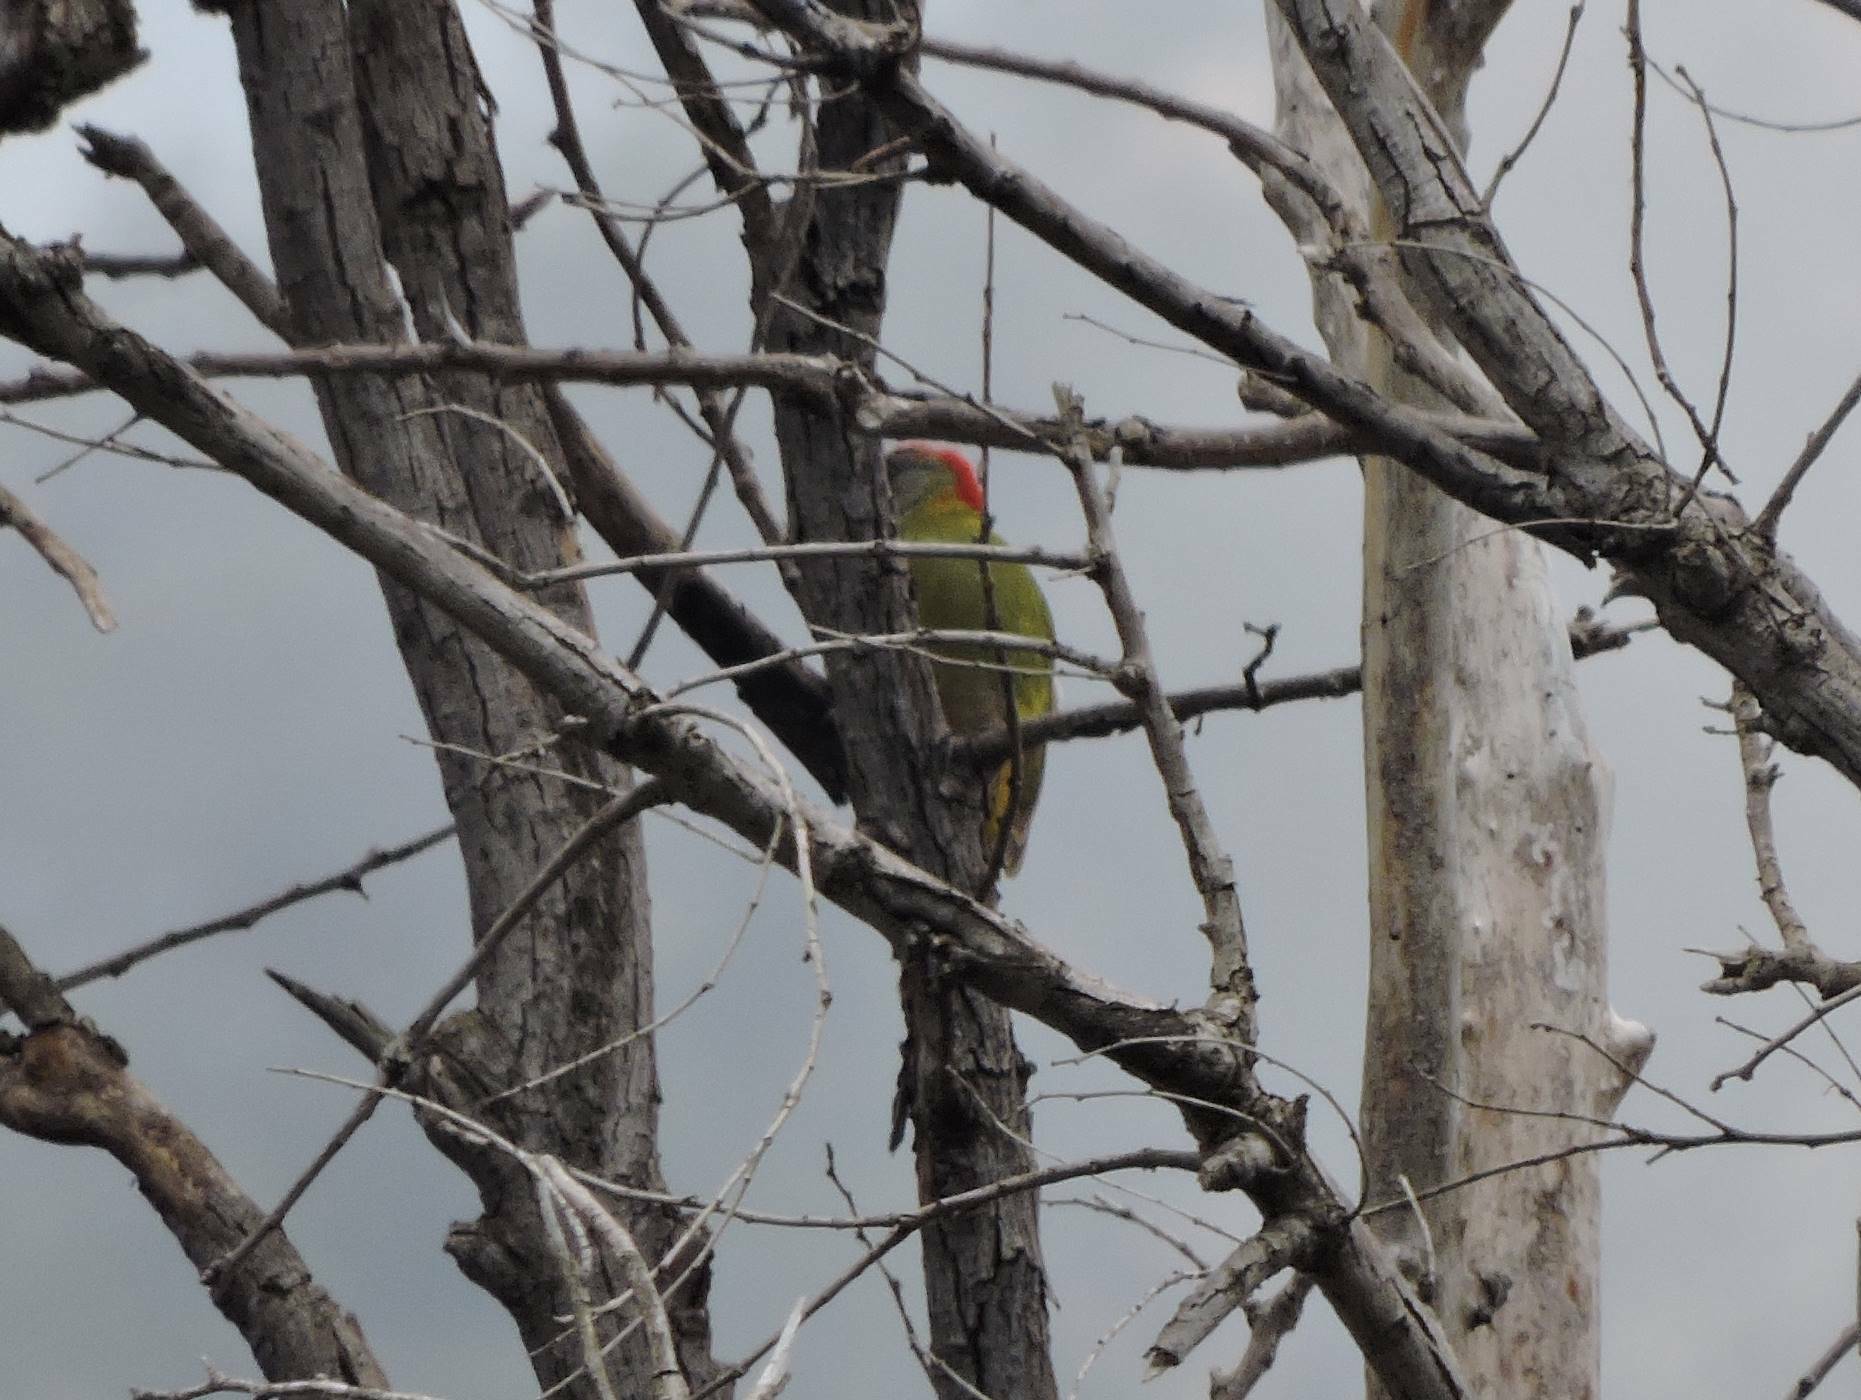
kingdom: Animalia
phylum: Chordata
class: Aves
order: Piciformes
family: Picidae
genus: Picus
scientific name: Picus vaillantii
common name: Levaillant's woodpecker
